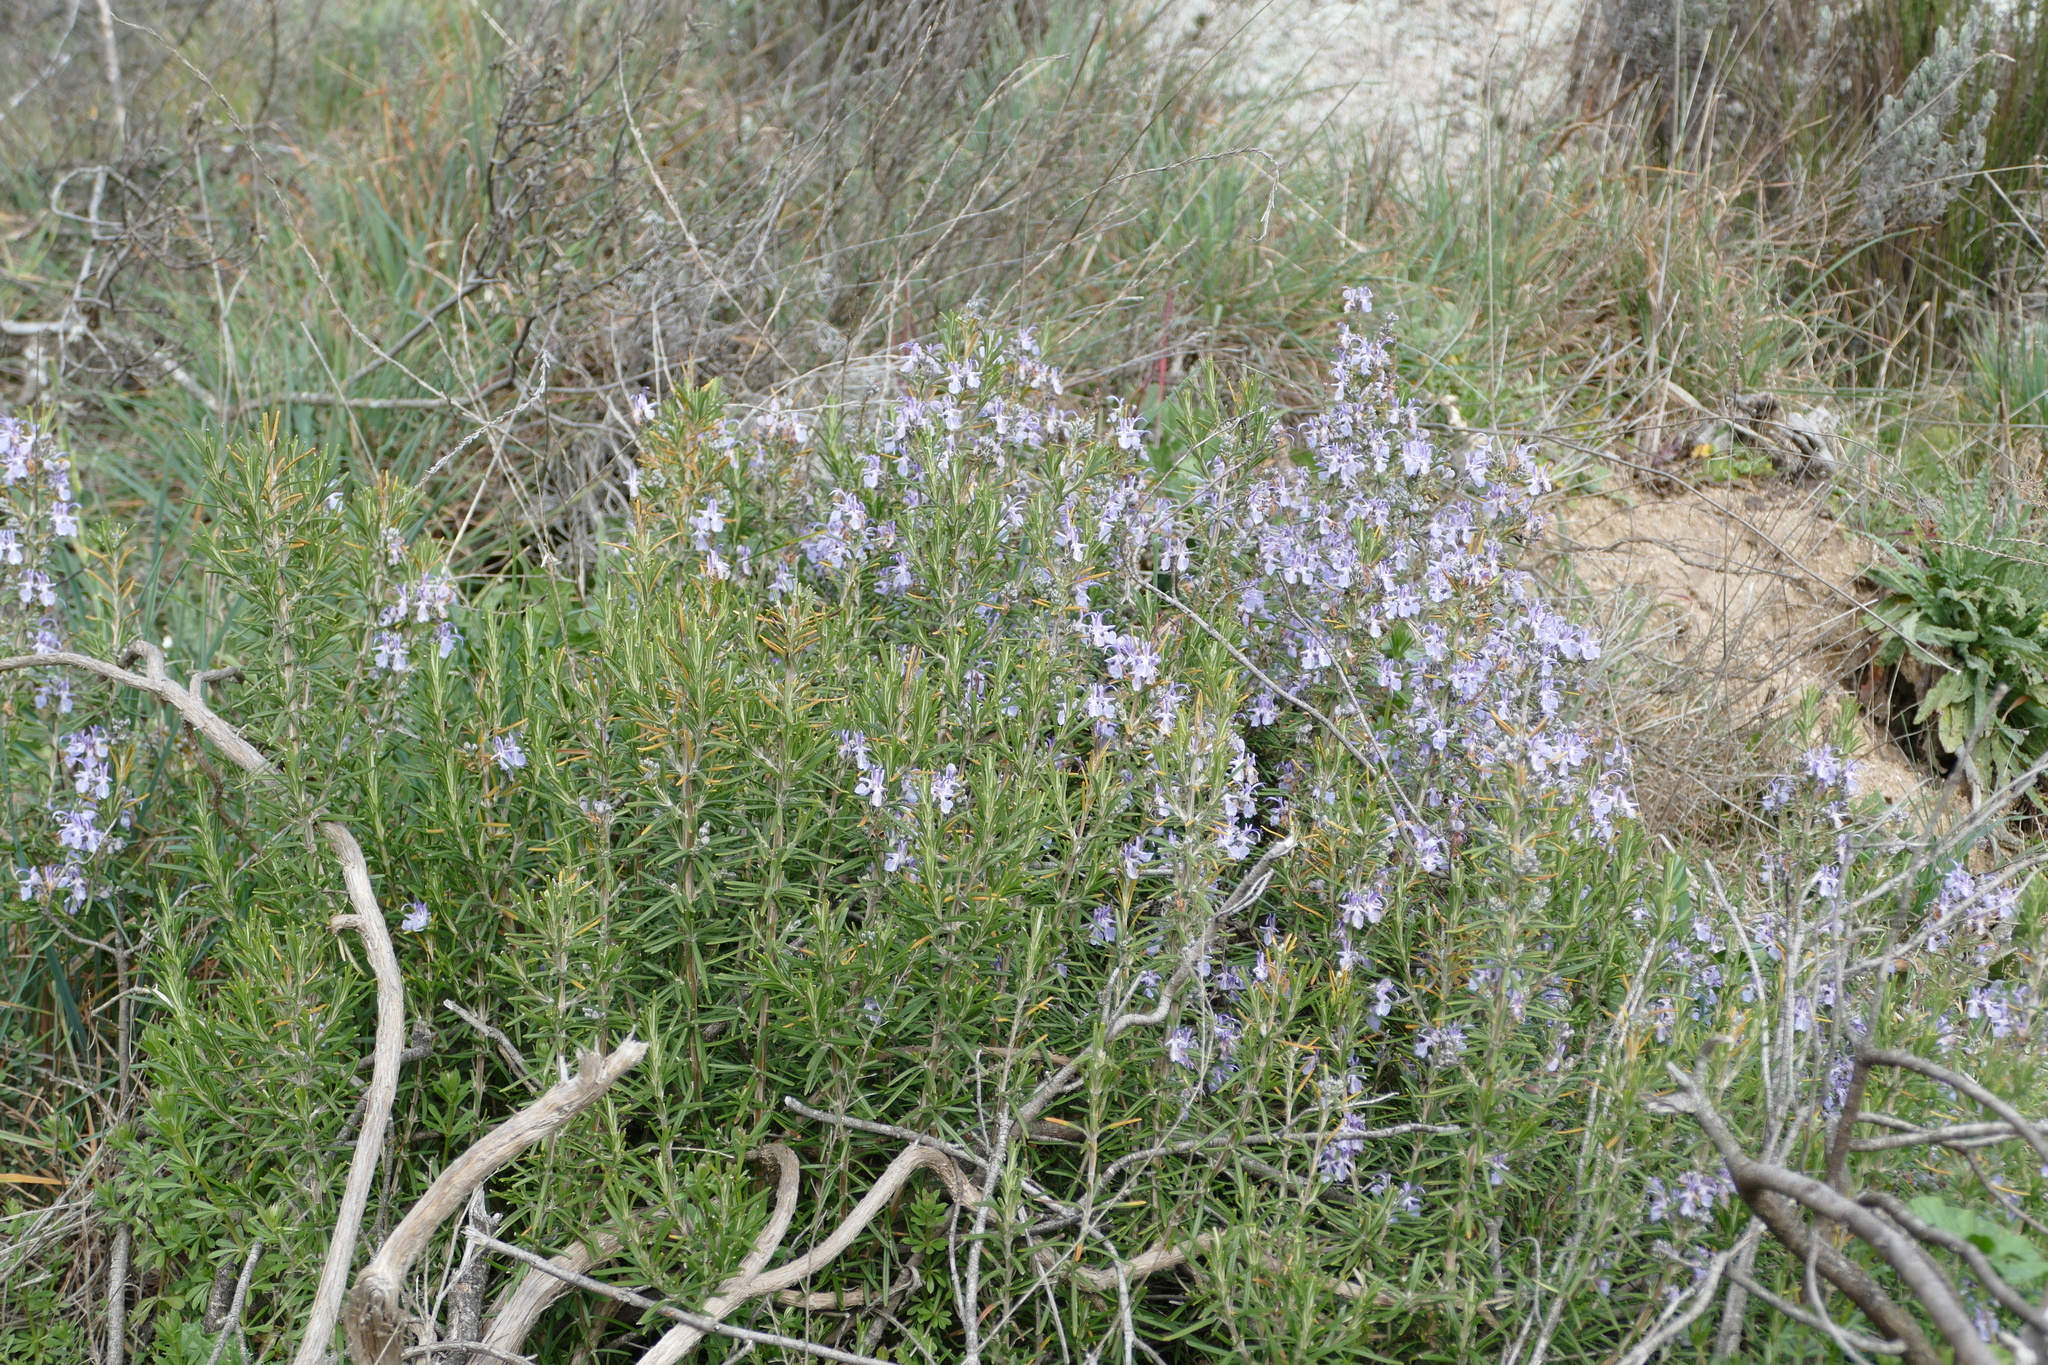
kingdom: Plantae
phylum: Tracheophyta
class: Magnoliopsida
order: Lamiales
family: Lamiaceae
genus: Salvia
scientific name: Salvia rosmarinus
